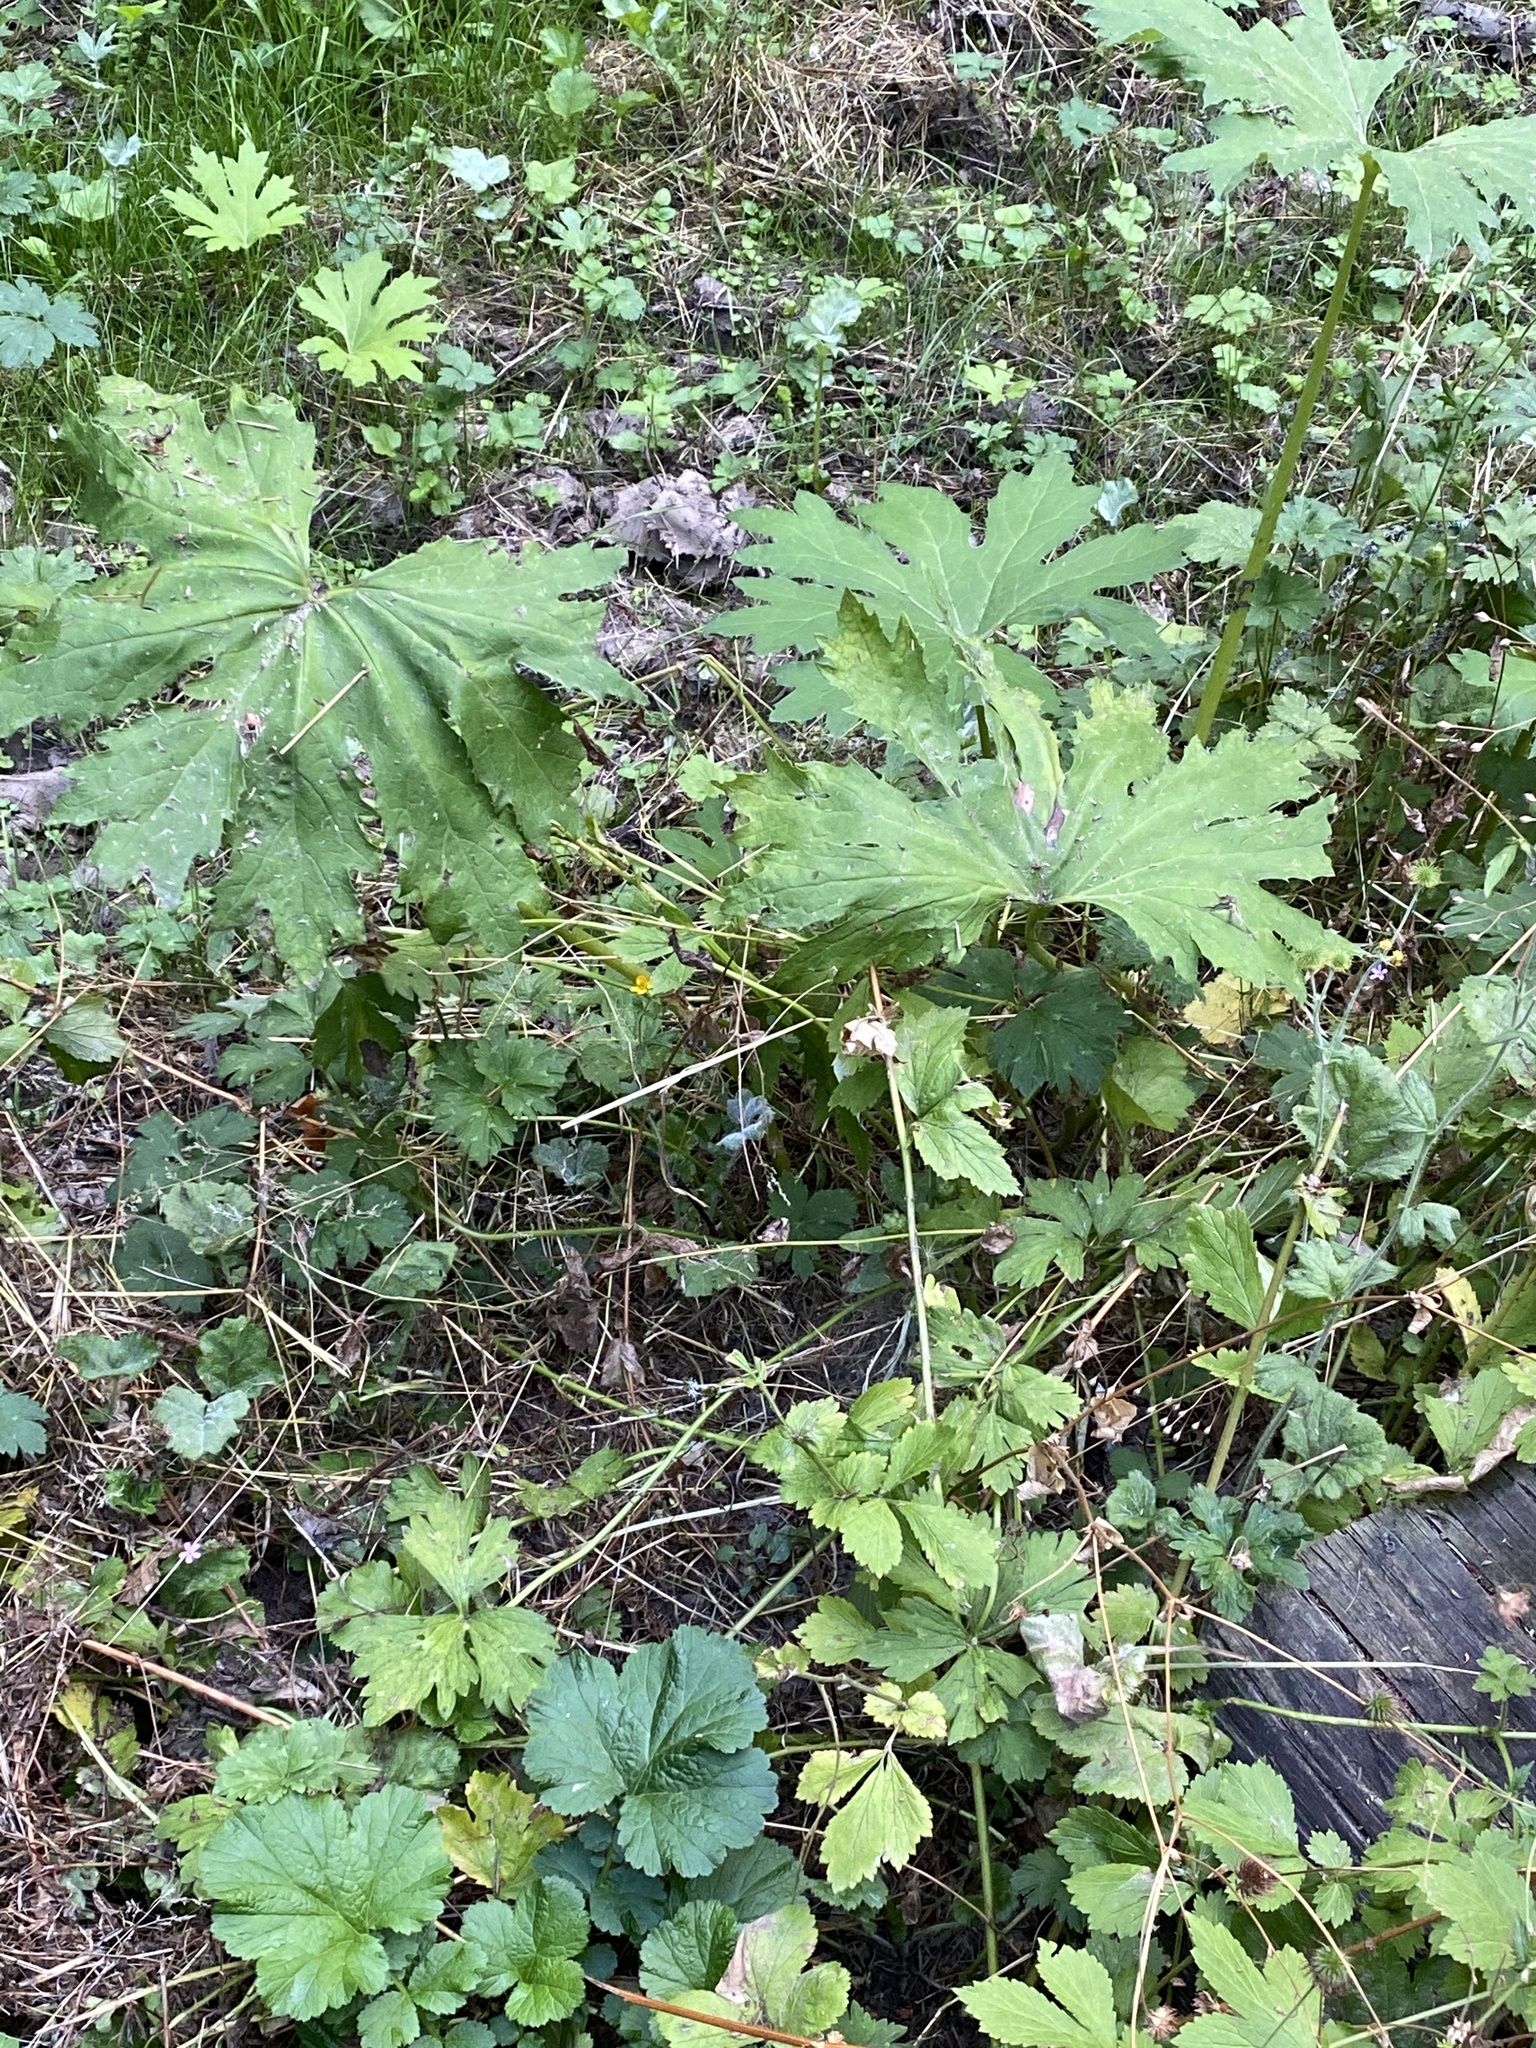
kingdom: Plantae
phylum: Tracheophyta
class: Magnoliopsida
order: Asterales
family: Asteraceae
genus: Petasites
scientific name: Petasites frigidus
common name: Arctic butterbur
